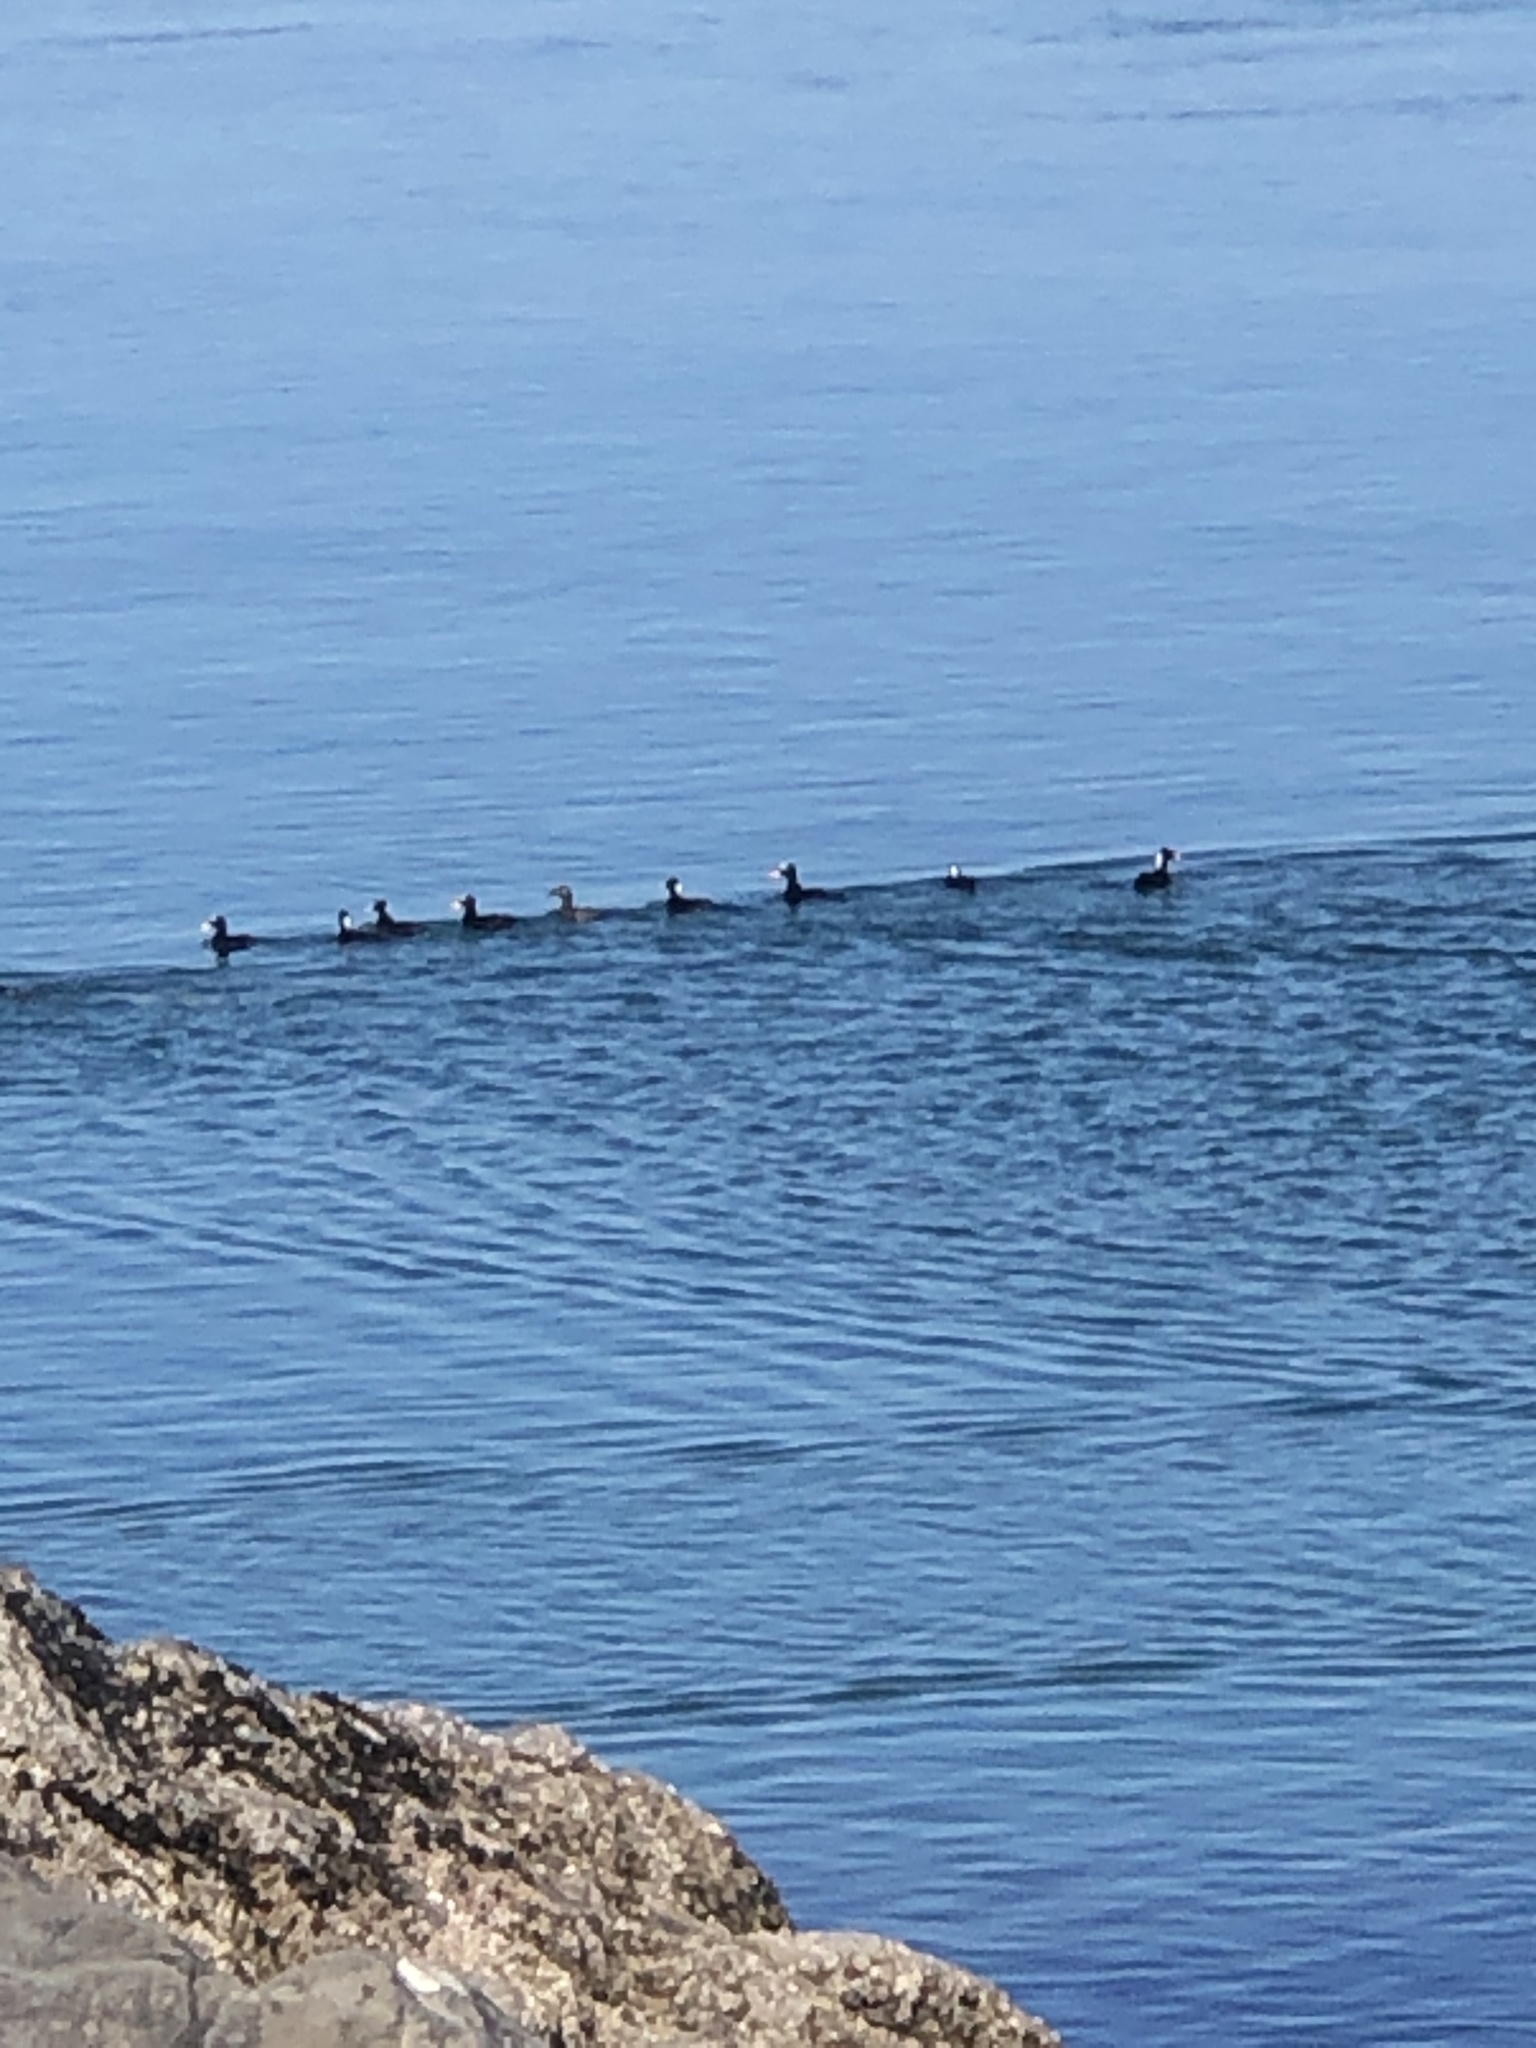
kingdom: Animalia
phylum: Chordata
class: Aves
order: Anseriformes
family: Anatidae
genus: Melanitta
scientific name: Melanitta perspicillata
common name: Surf scoter
